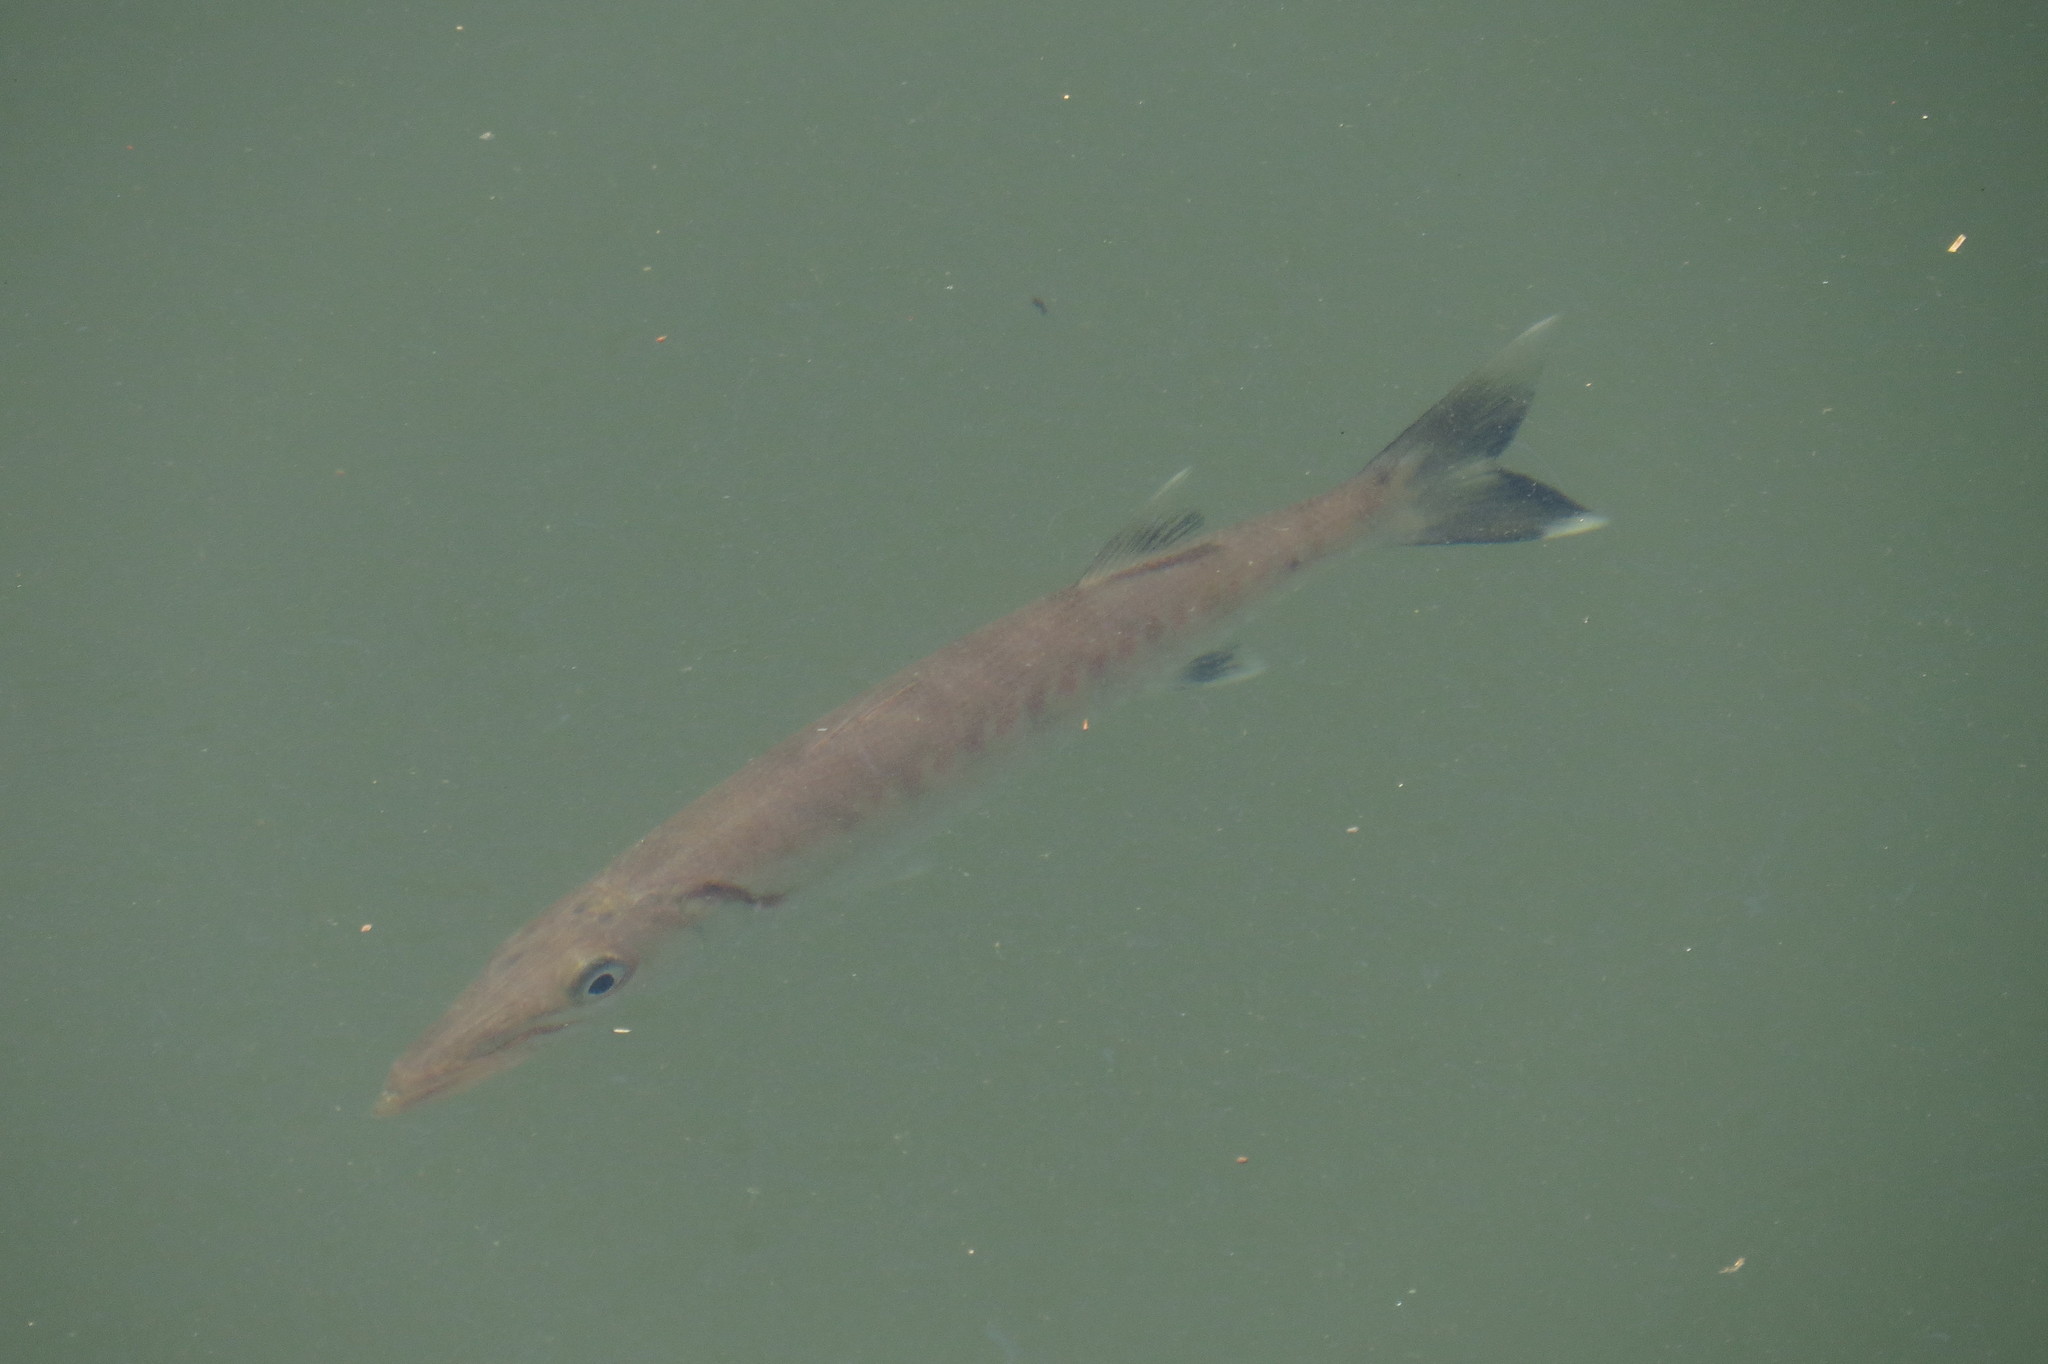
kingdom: Animalia
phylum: Chordata
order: Perciformes
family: Sphyraenidae
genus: Sphyraena
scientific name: Sphyraena barracuda
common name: Great barracuda
